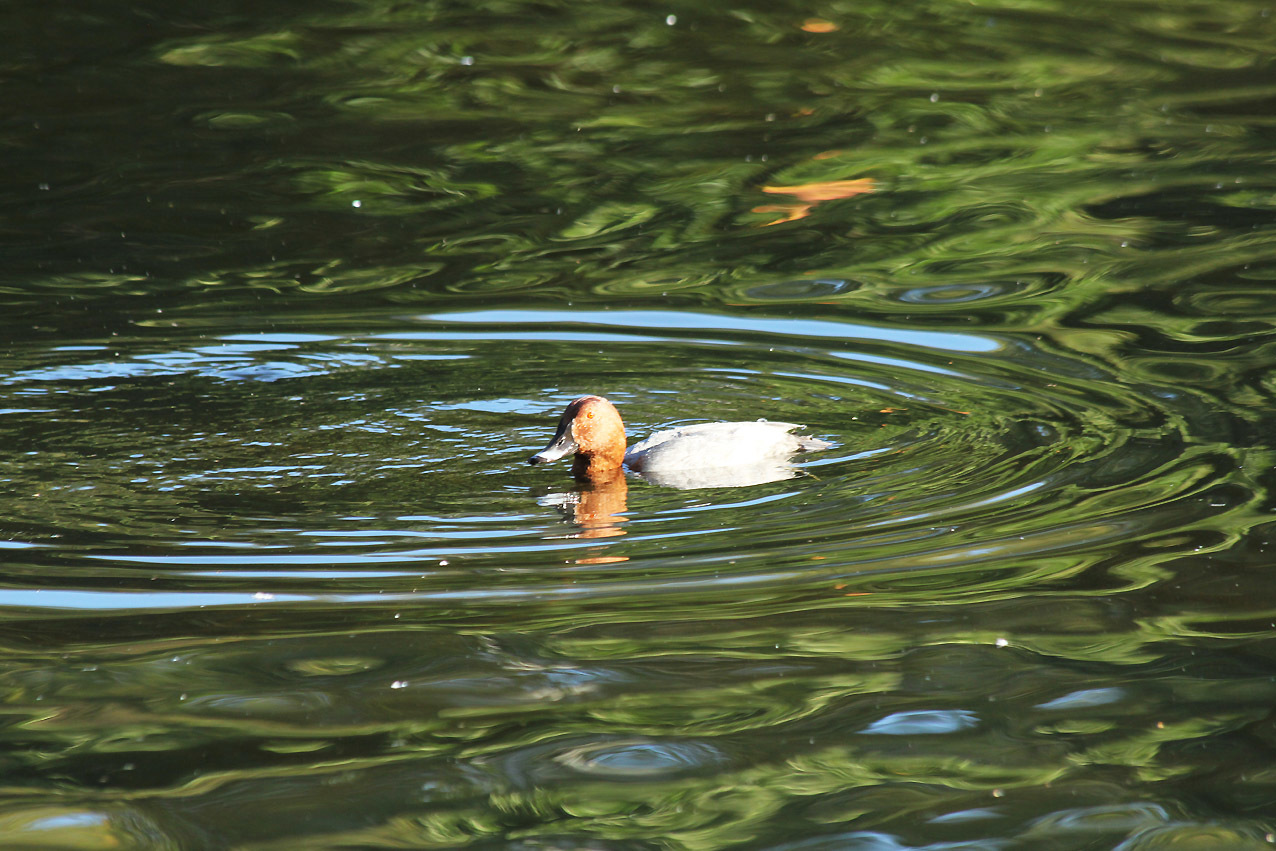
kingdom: Animalia
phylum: Chordata
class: Aves
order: Anseriformes
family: Anatidae
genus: Aythya
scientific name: Aythya ferina
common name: Common pochard
